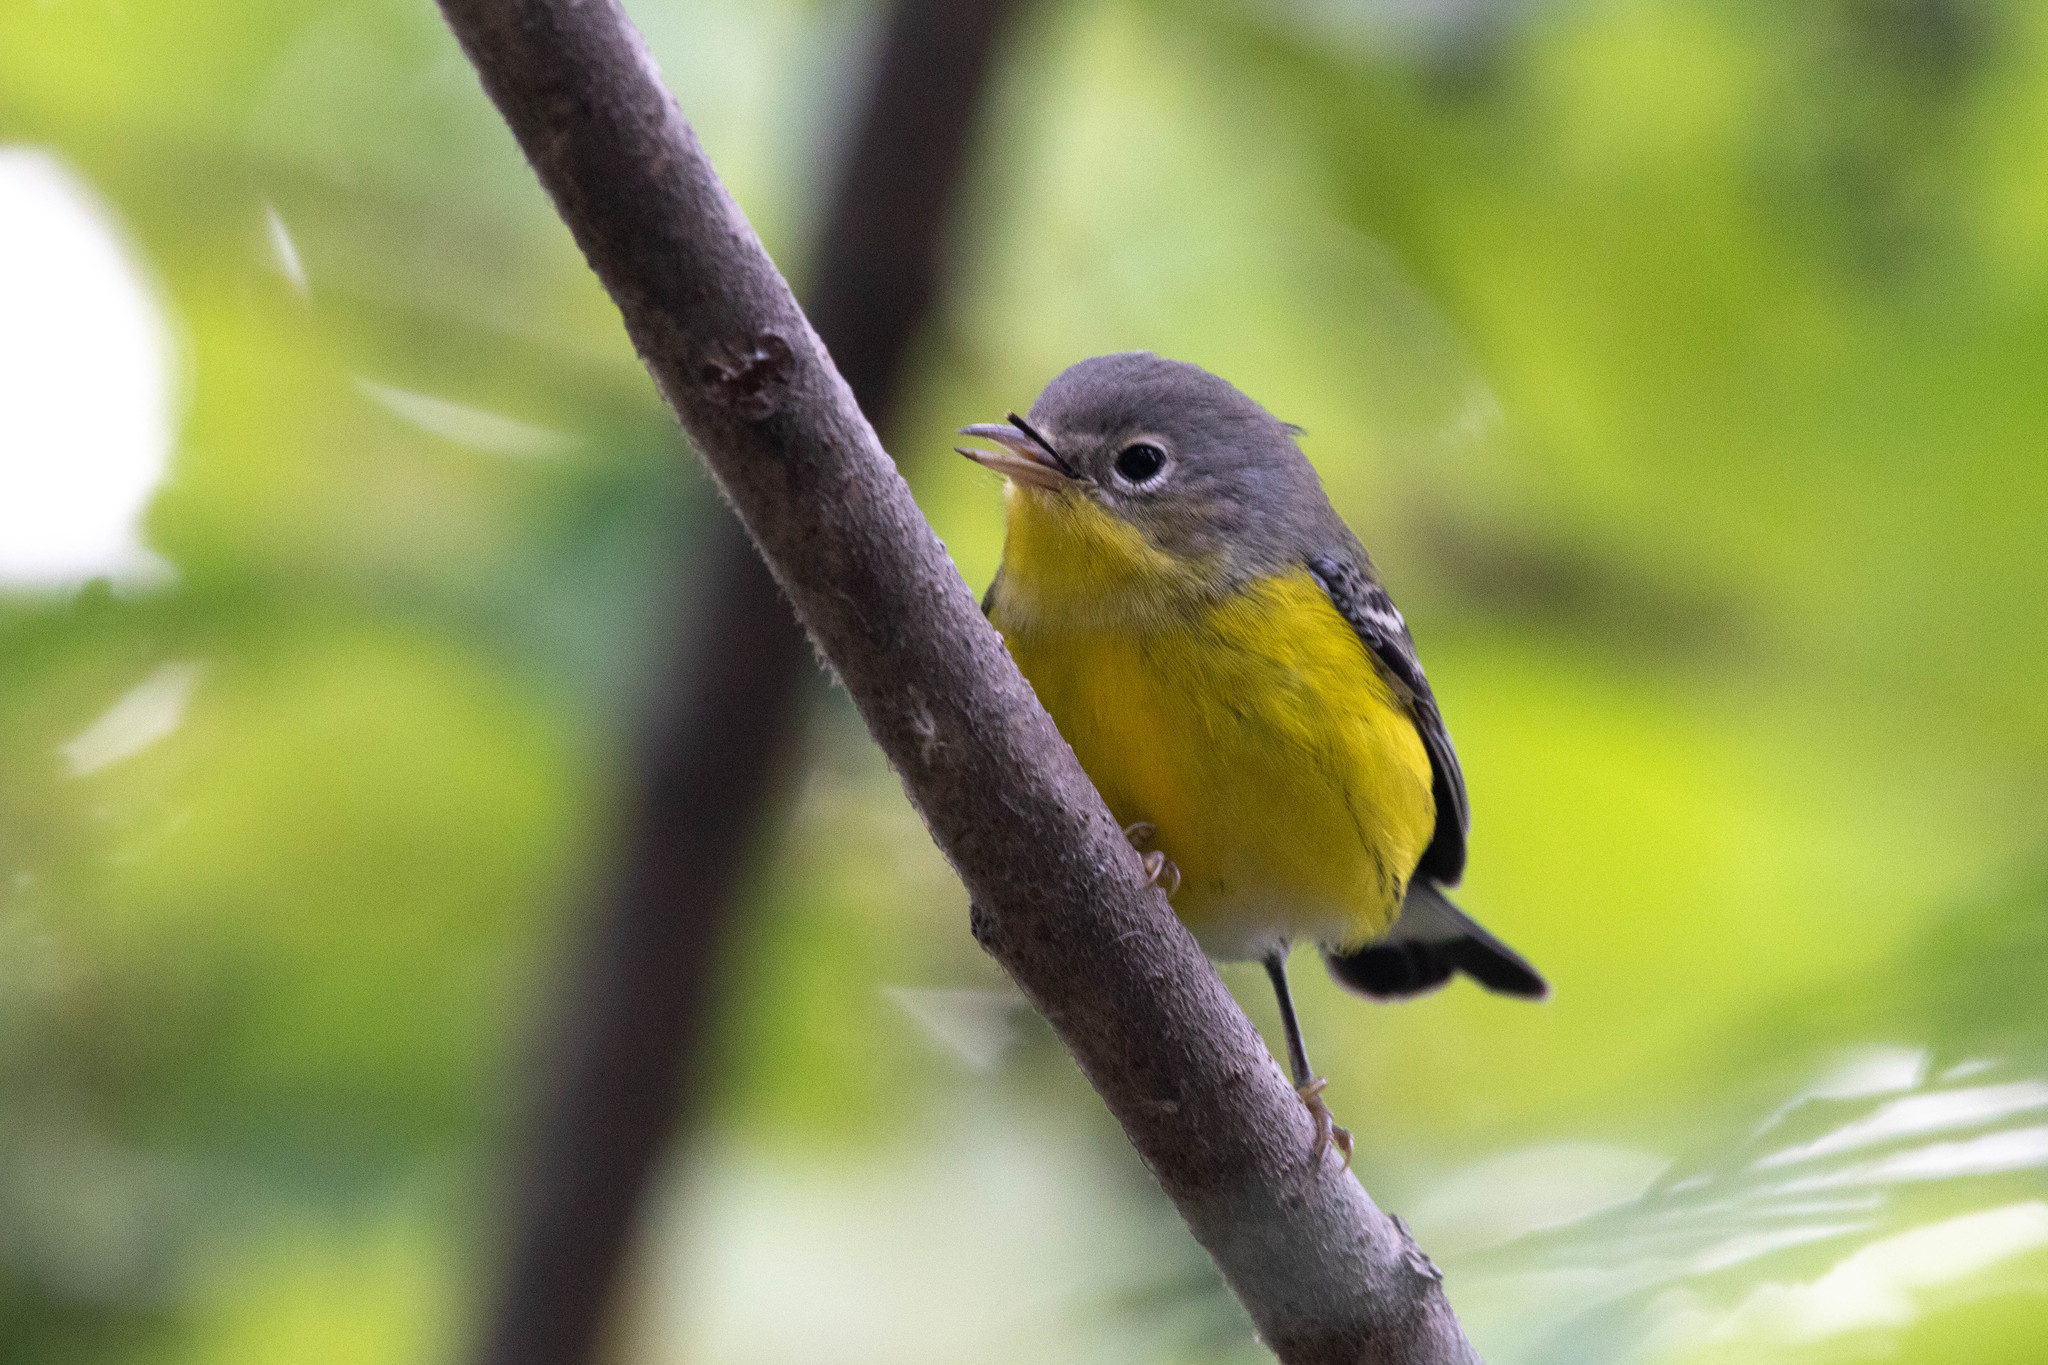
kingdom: Animalia
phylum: Chordata
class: Aves
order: Passeriformes
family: Parulidae
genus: Setophaga
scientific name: Setophaga magnolia
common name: Magnolia warbler
